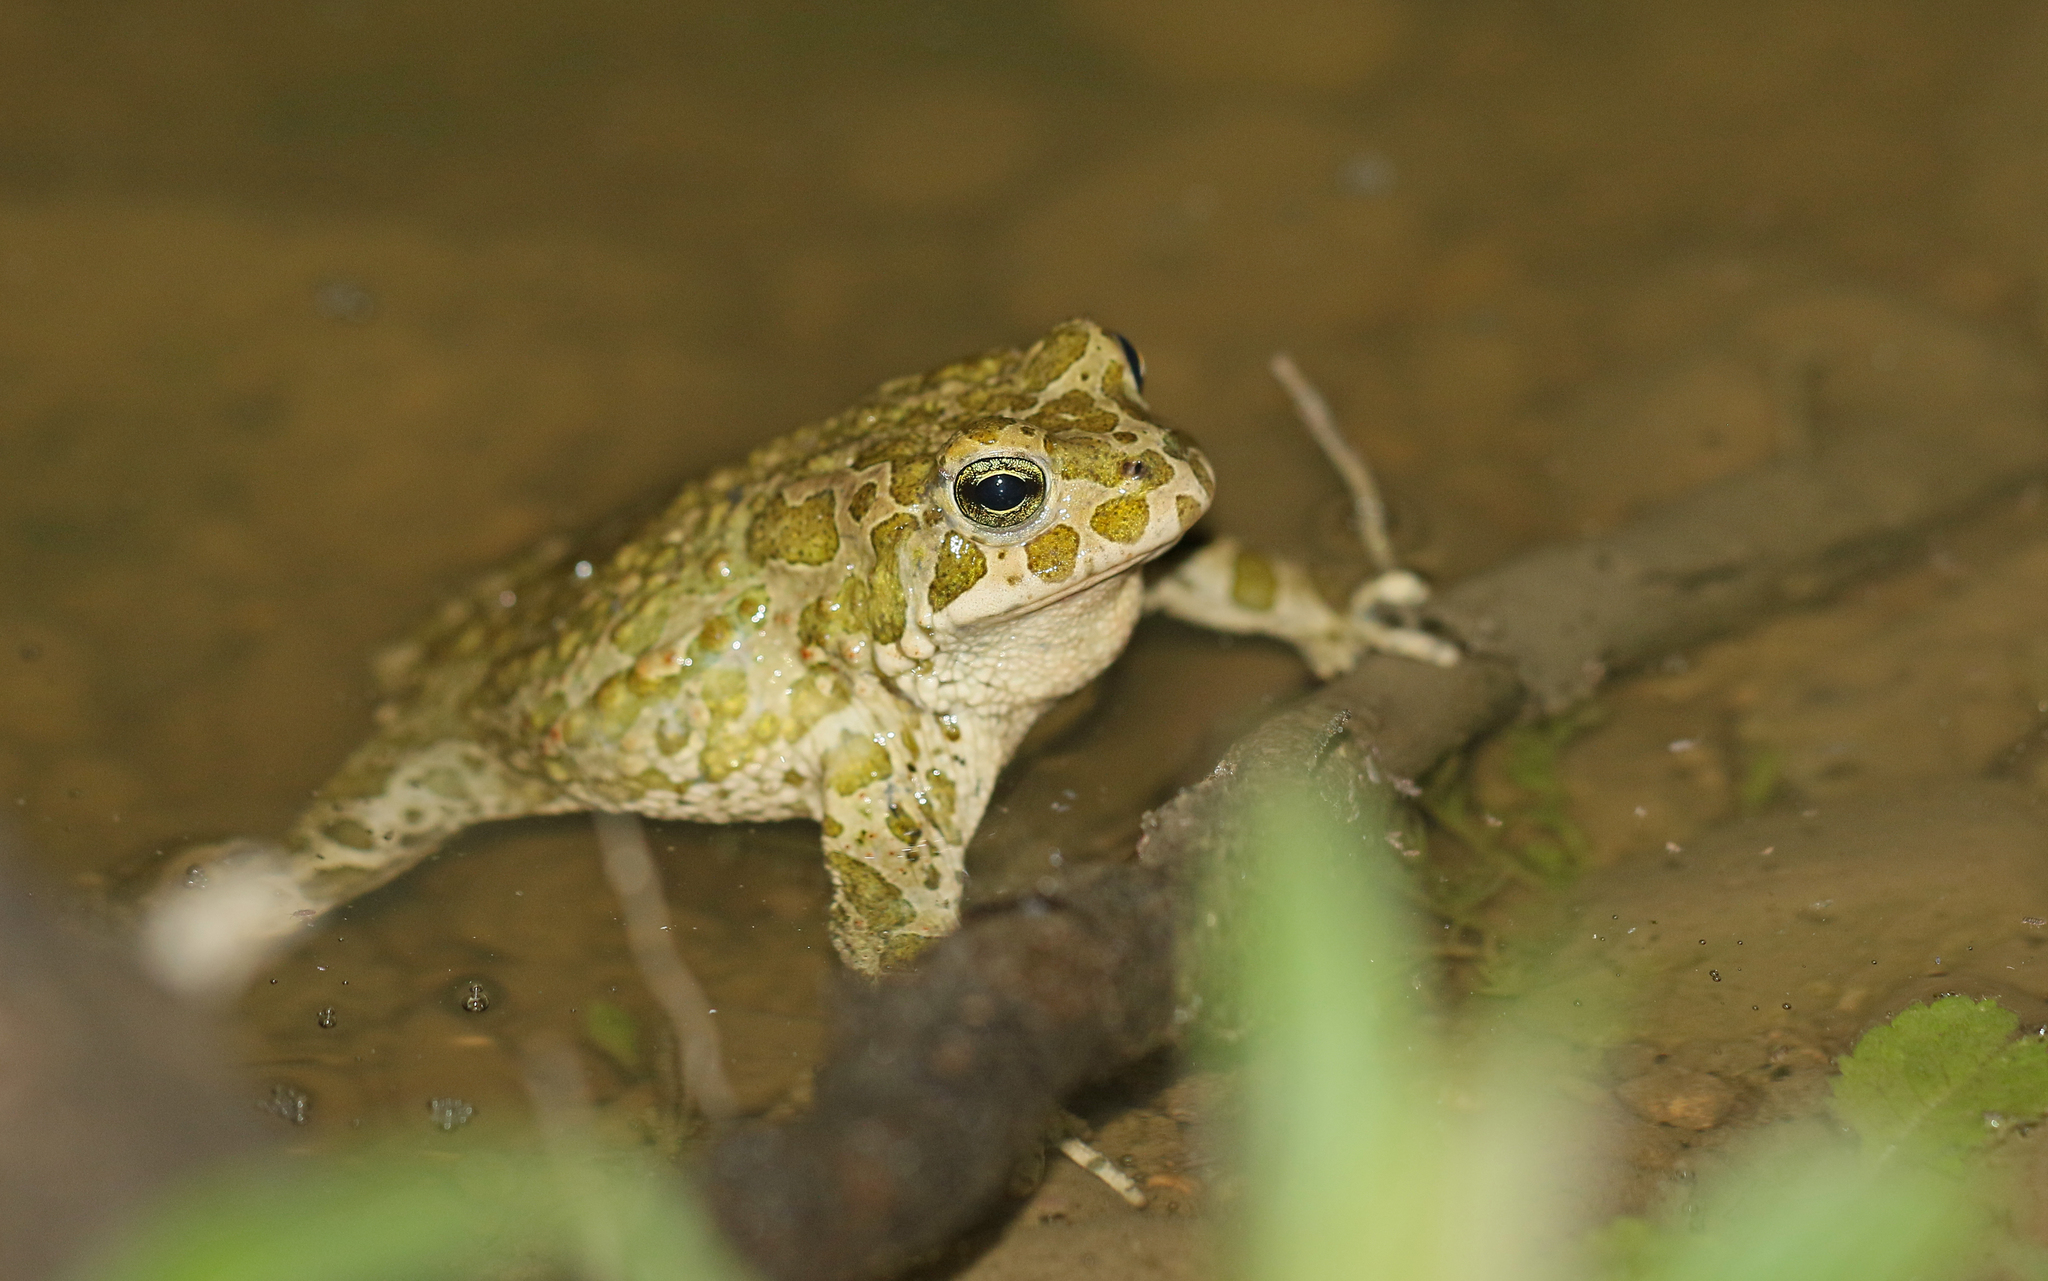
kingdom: Animalia
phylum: Chordata
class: Amphibia
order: Anura
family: Bufonidae
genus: Bufotes
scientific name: Bufotes viridis
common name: European green toad
